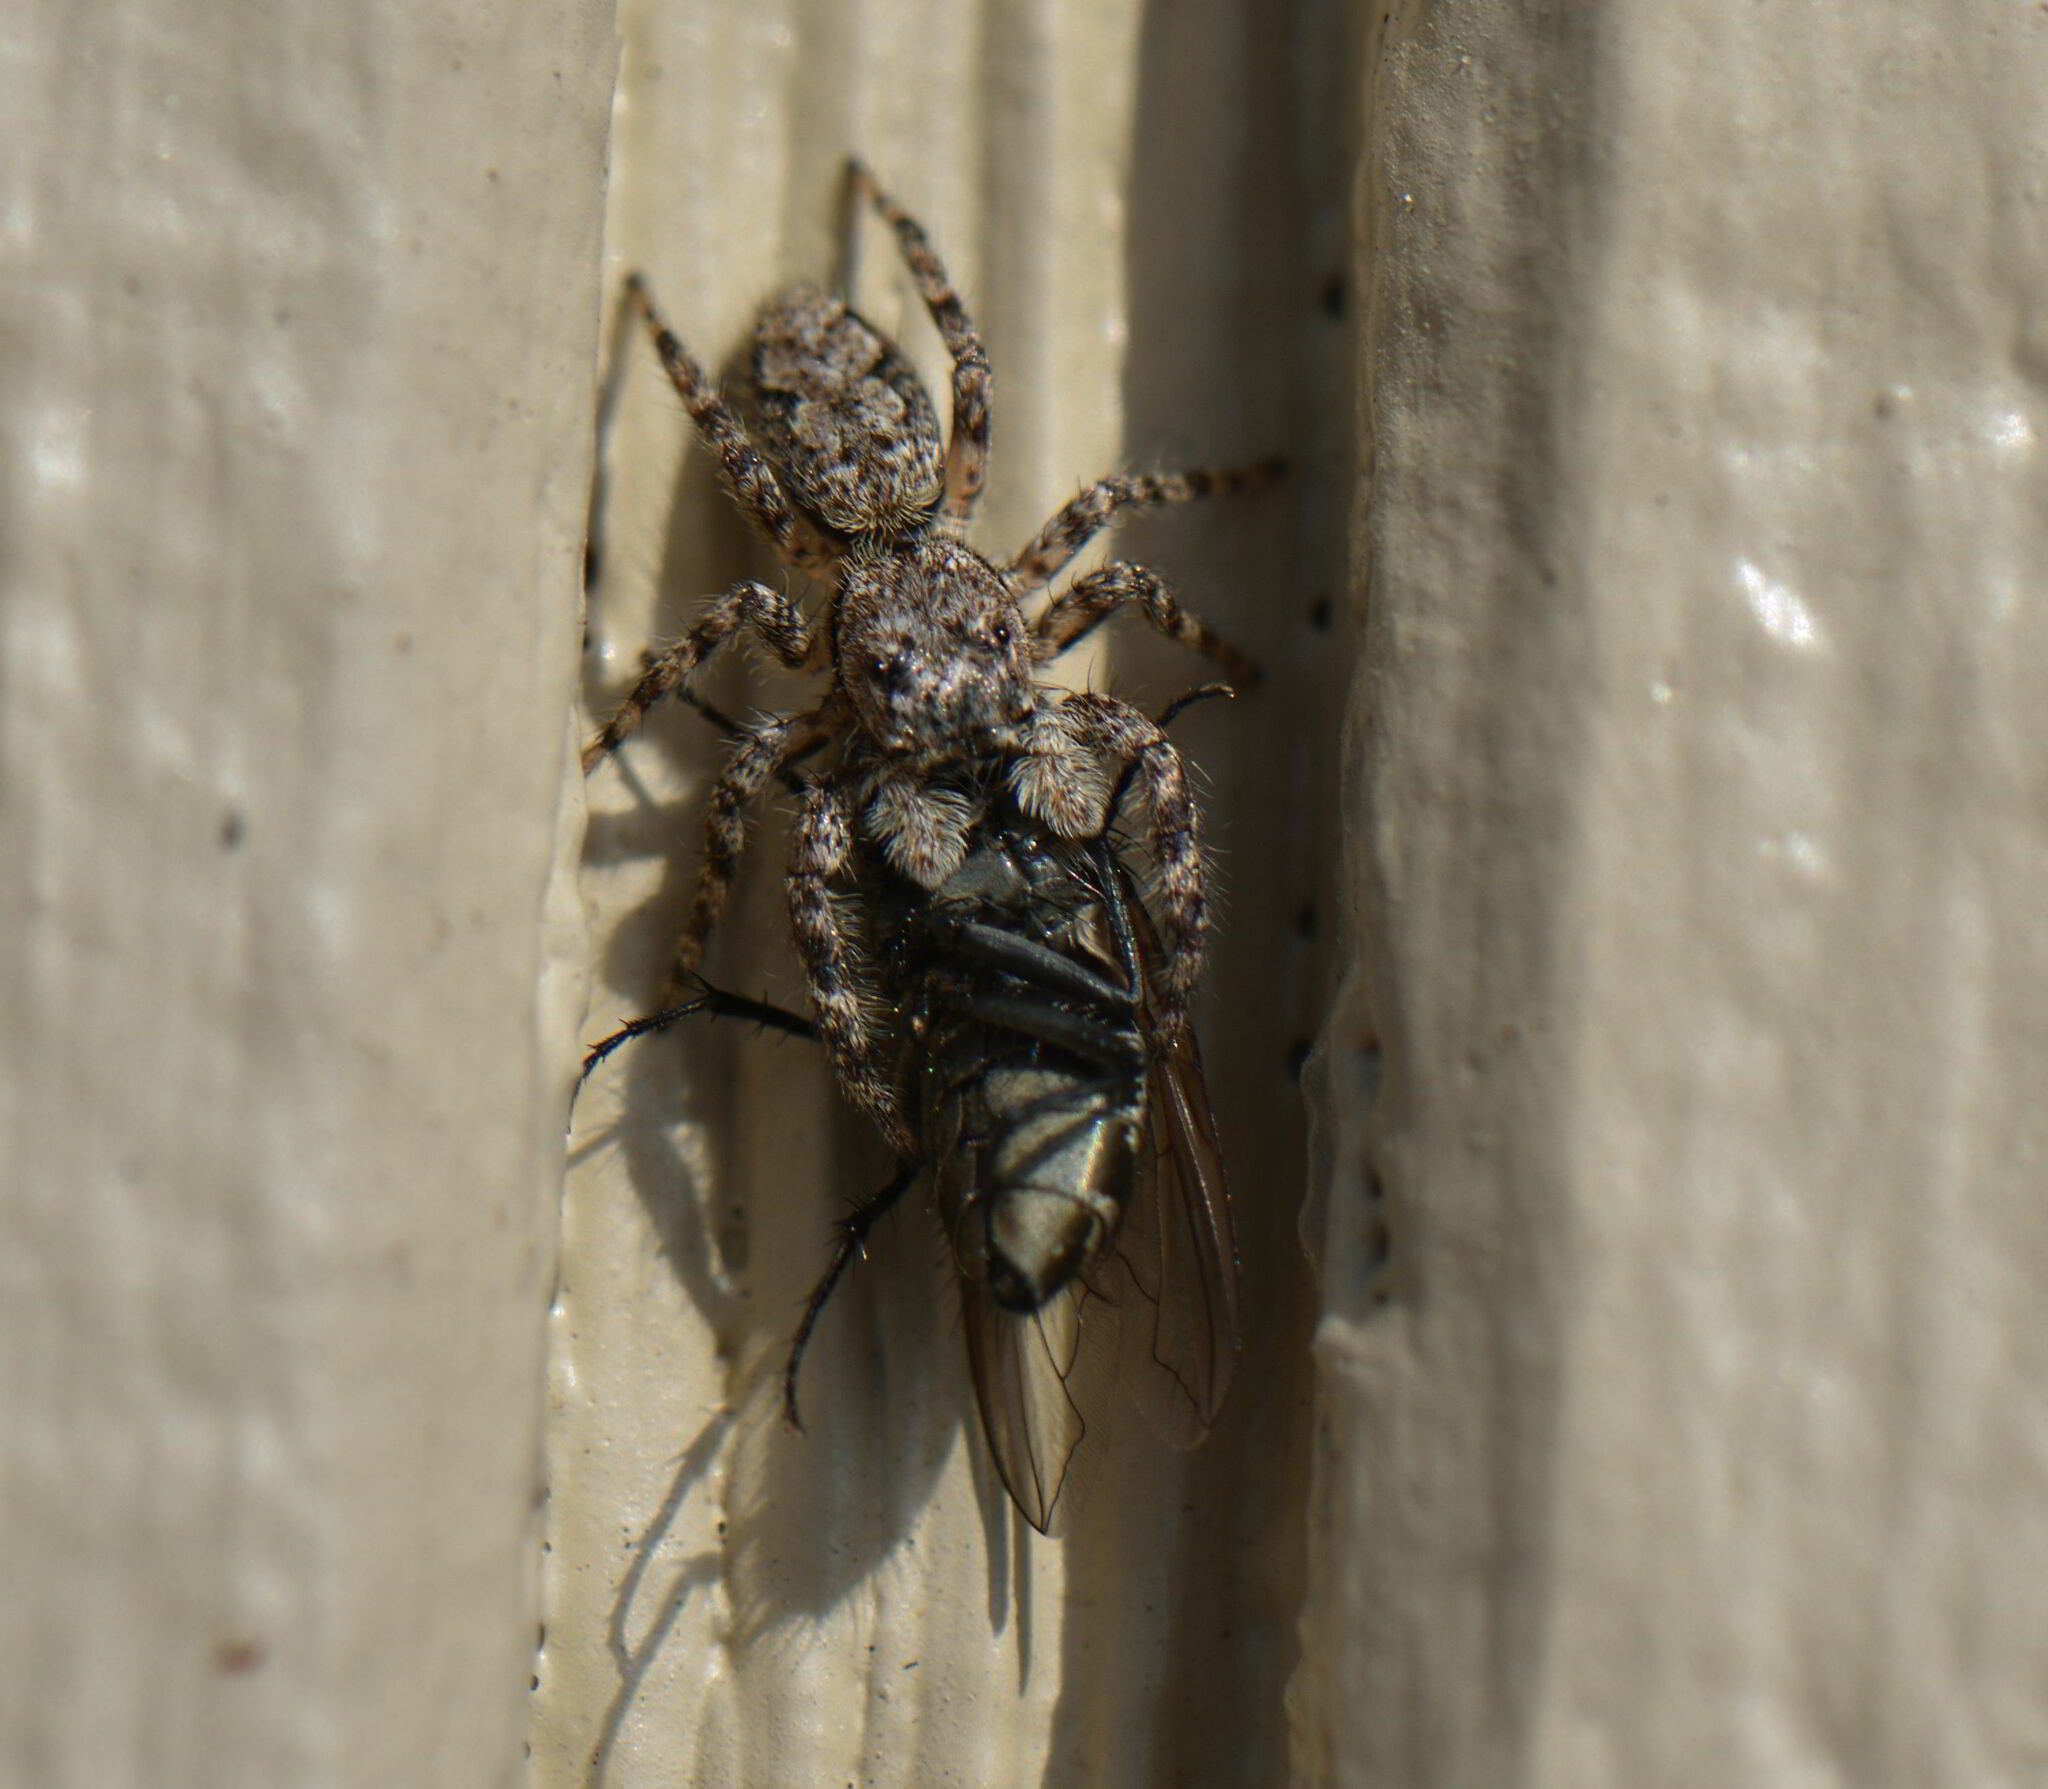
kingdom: Animalia
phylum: Arthropoda
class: Arachnida
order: Araneae
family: Salticidae
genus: Platycryptus
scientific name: Platycryptus undatus
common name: Tan jumping spider
